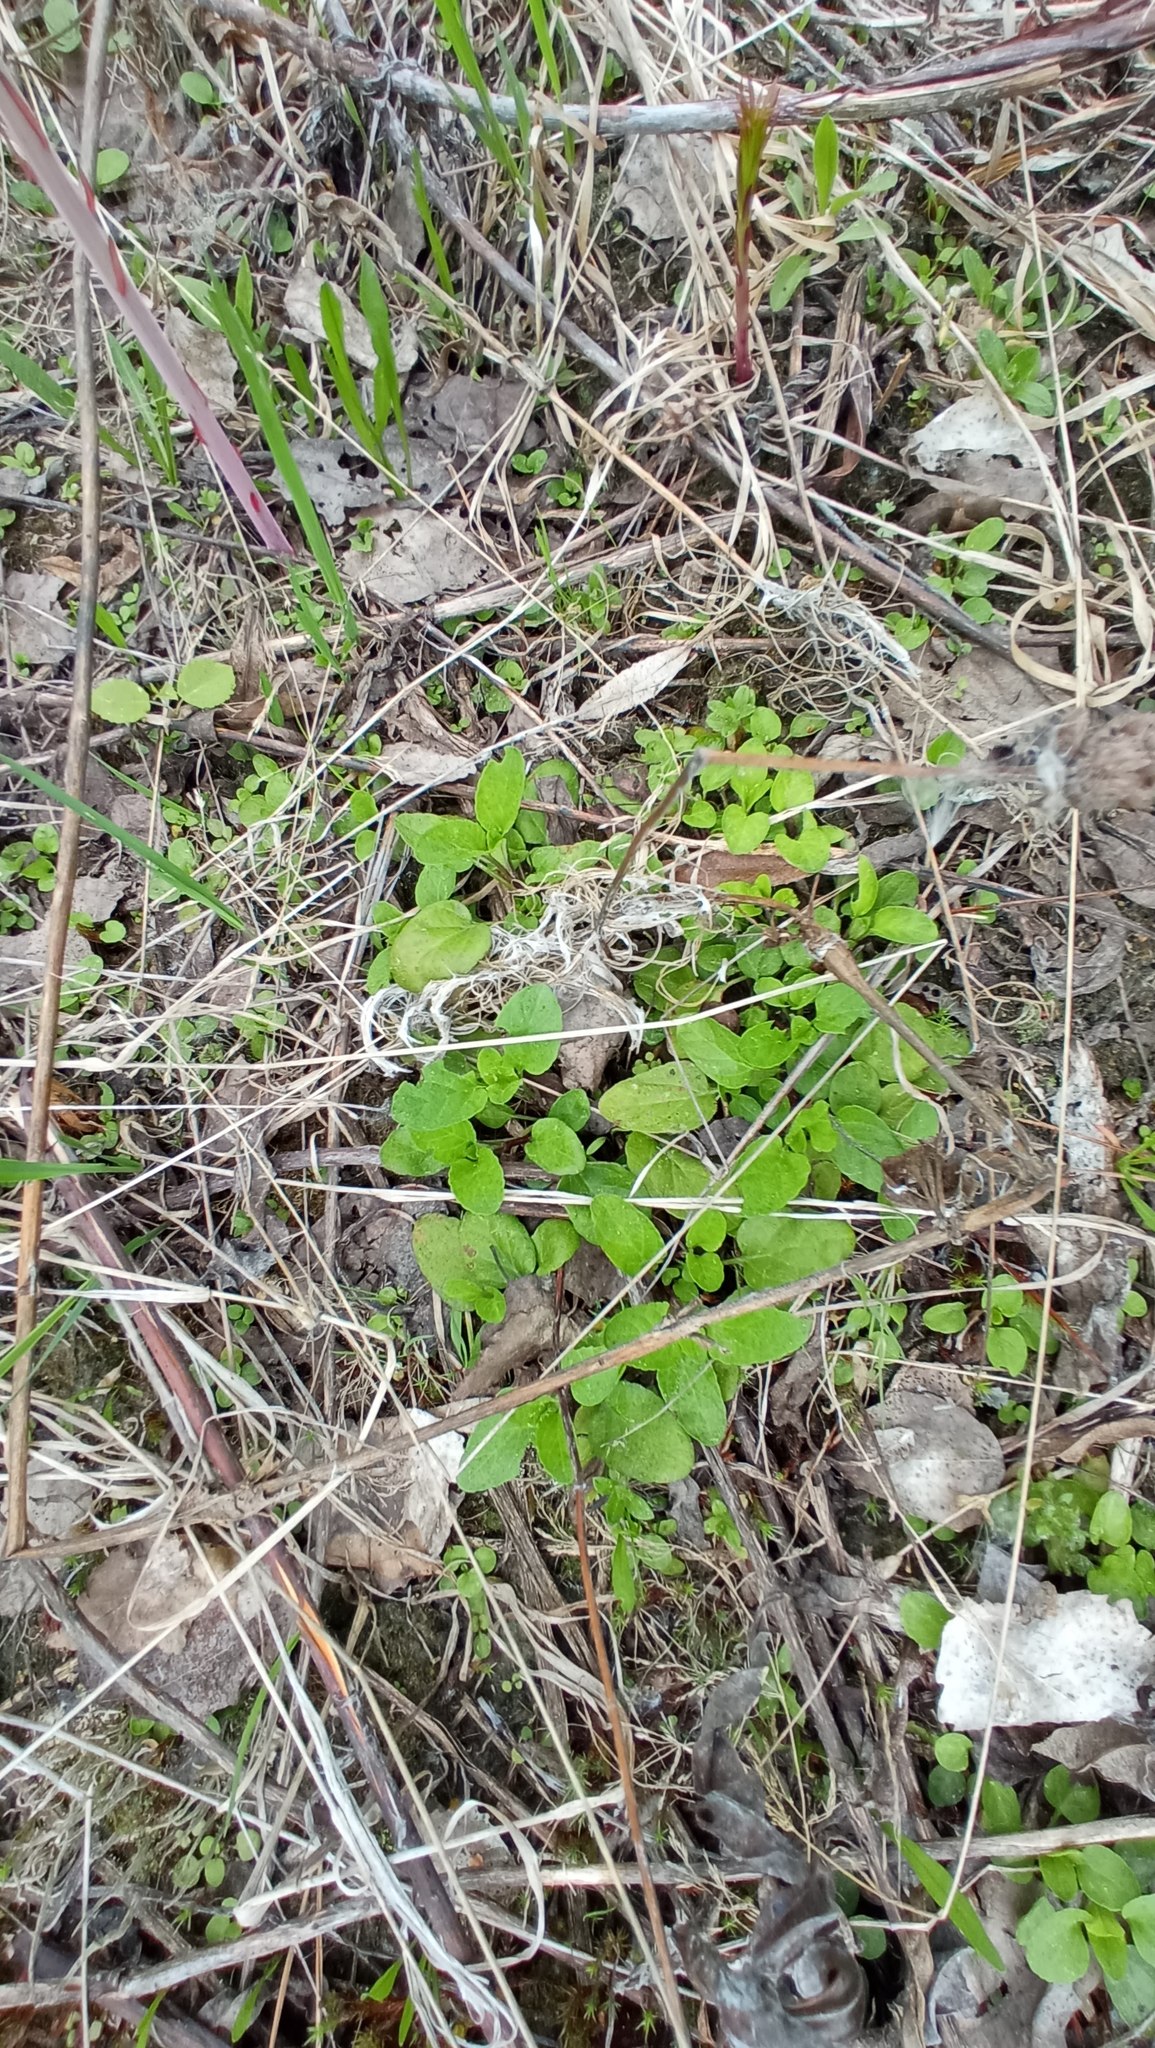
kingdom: Plantae
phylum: Tracheophyta
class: Magnoliopsida
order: Lamiales
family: Lamiaceae
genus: Prunella
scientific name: Prunella vulgaris
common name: Heal-all
